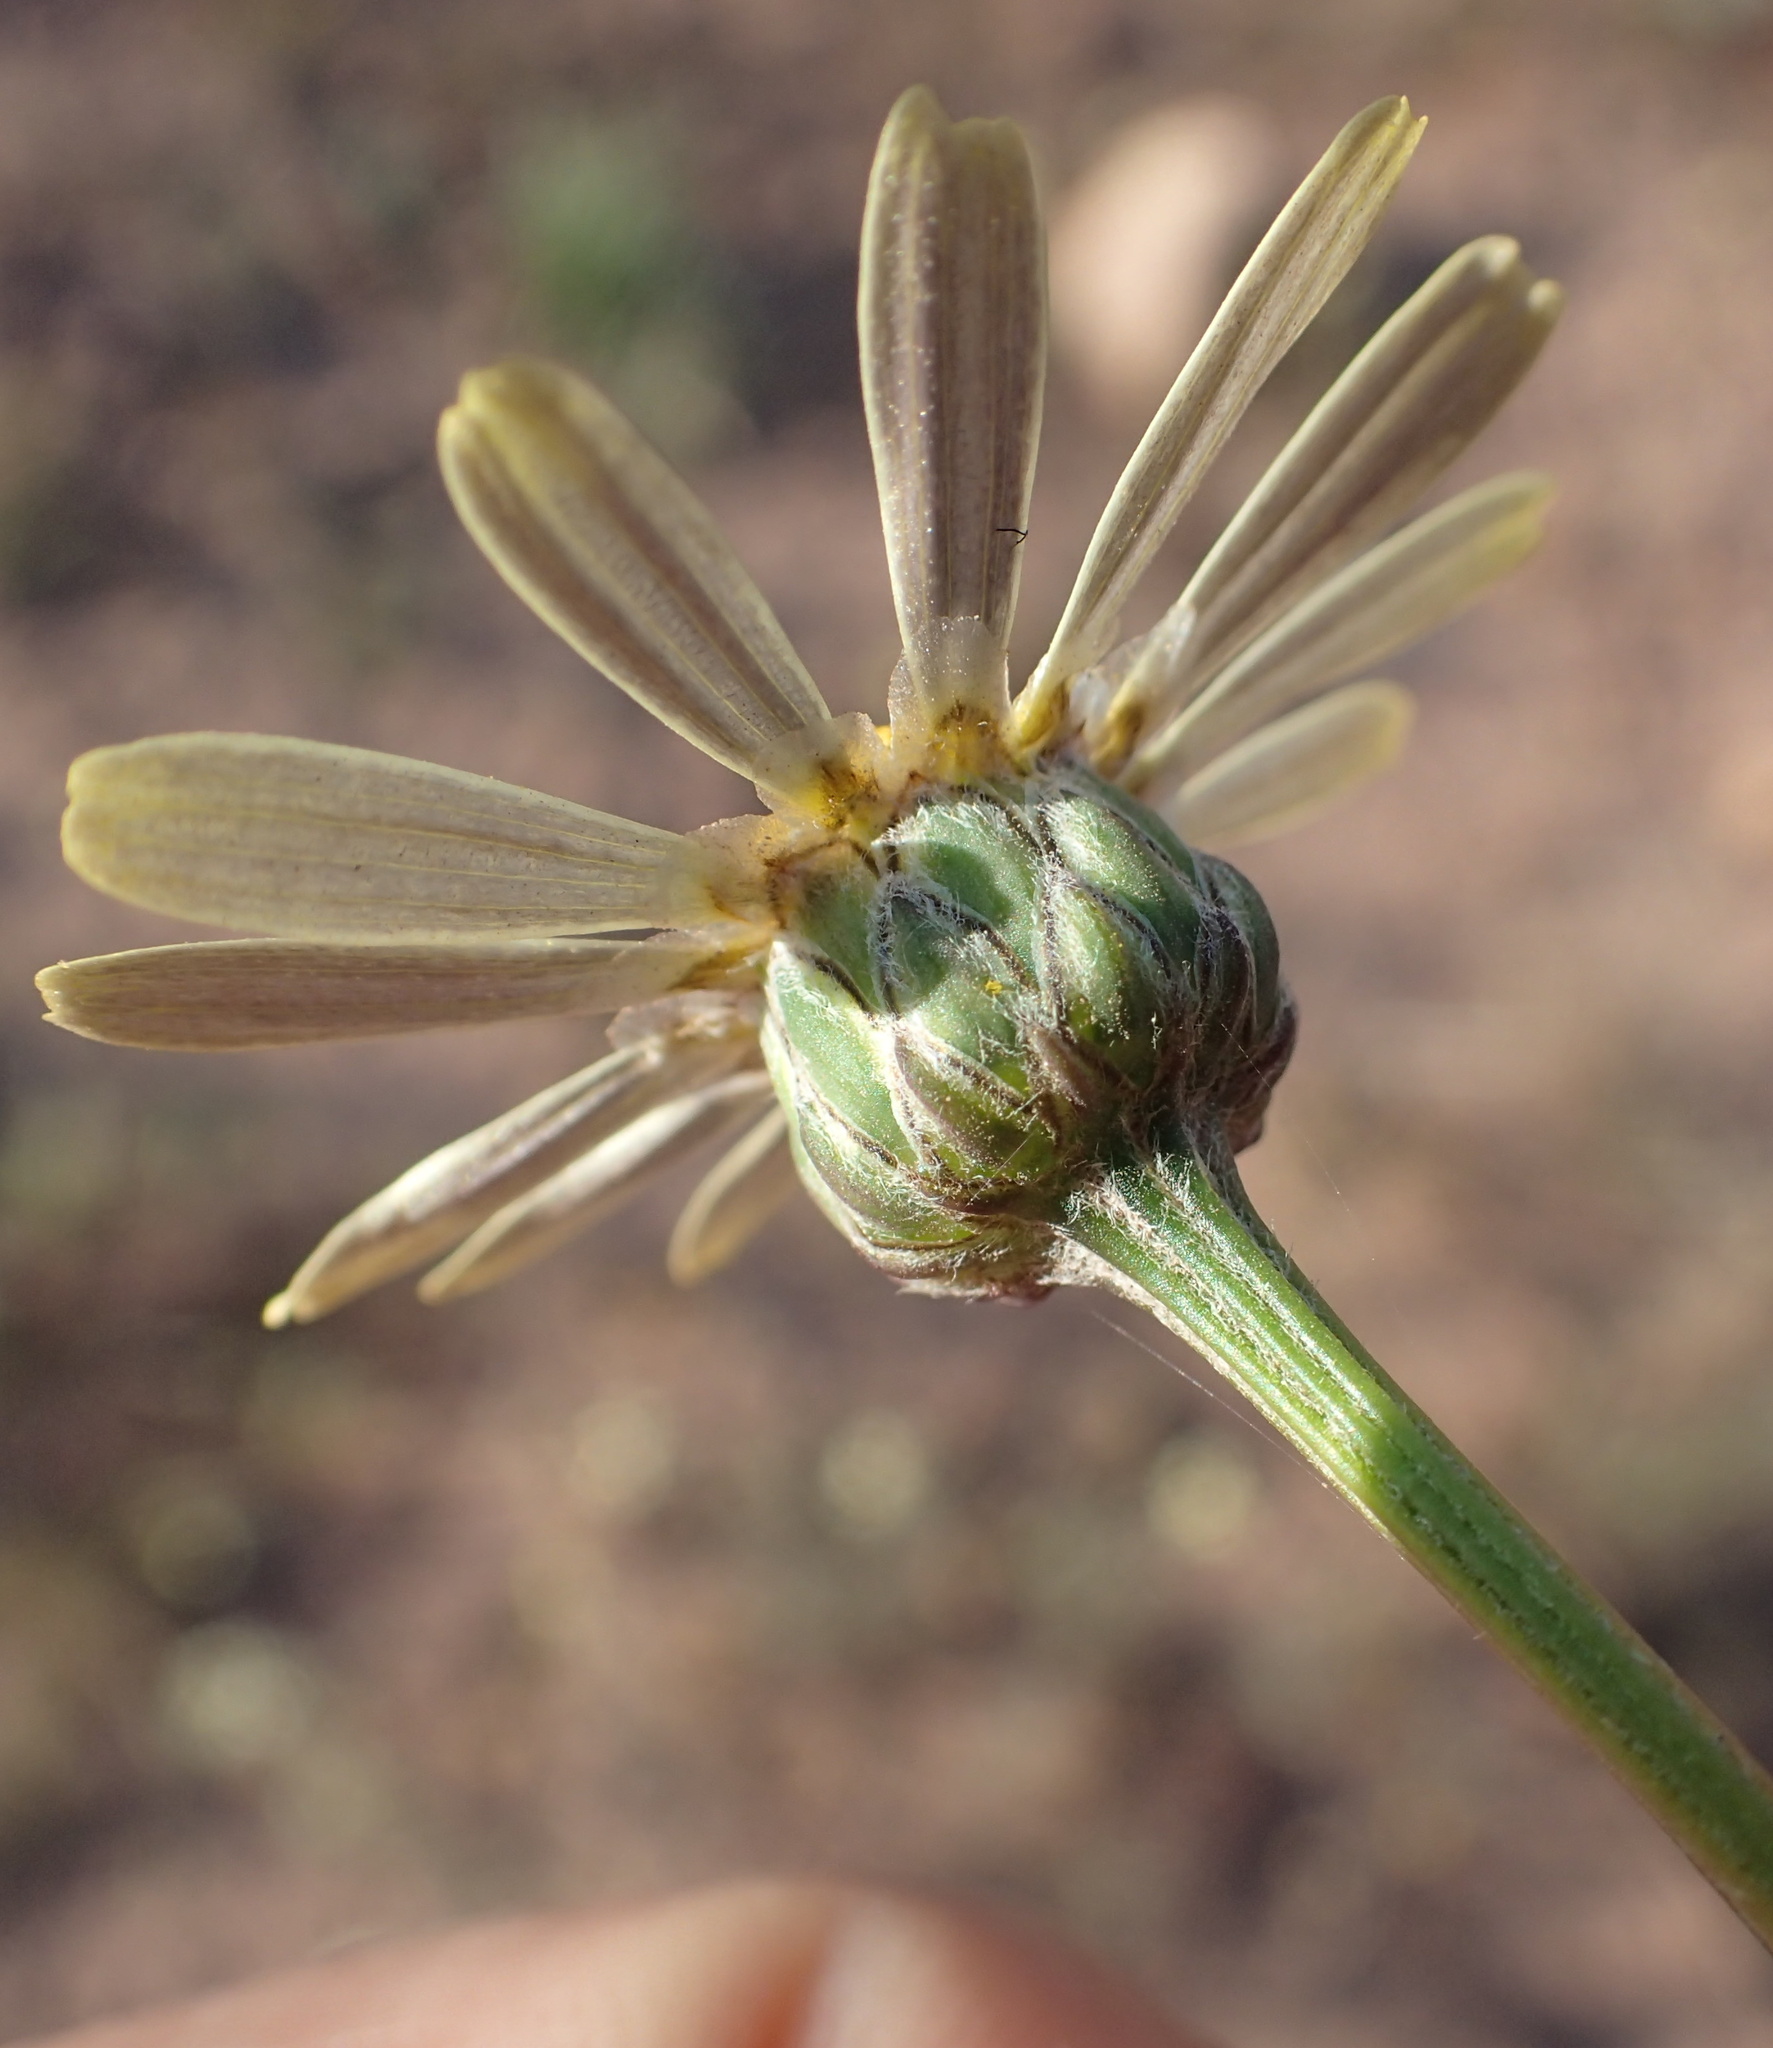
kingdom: Plantae
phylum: Tracheophyta
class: Magnoliopsida
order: Asterales
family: Asteraceae
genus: Ursinia
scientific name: Ursinia speciosa
